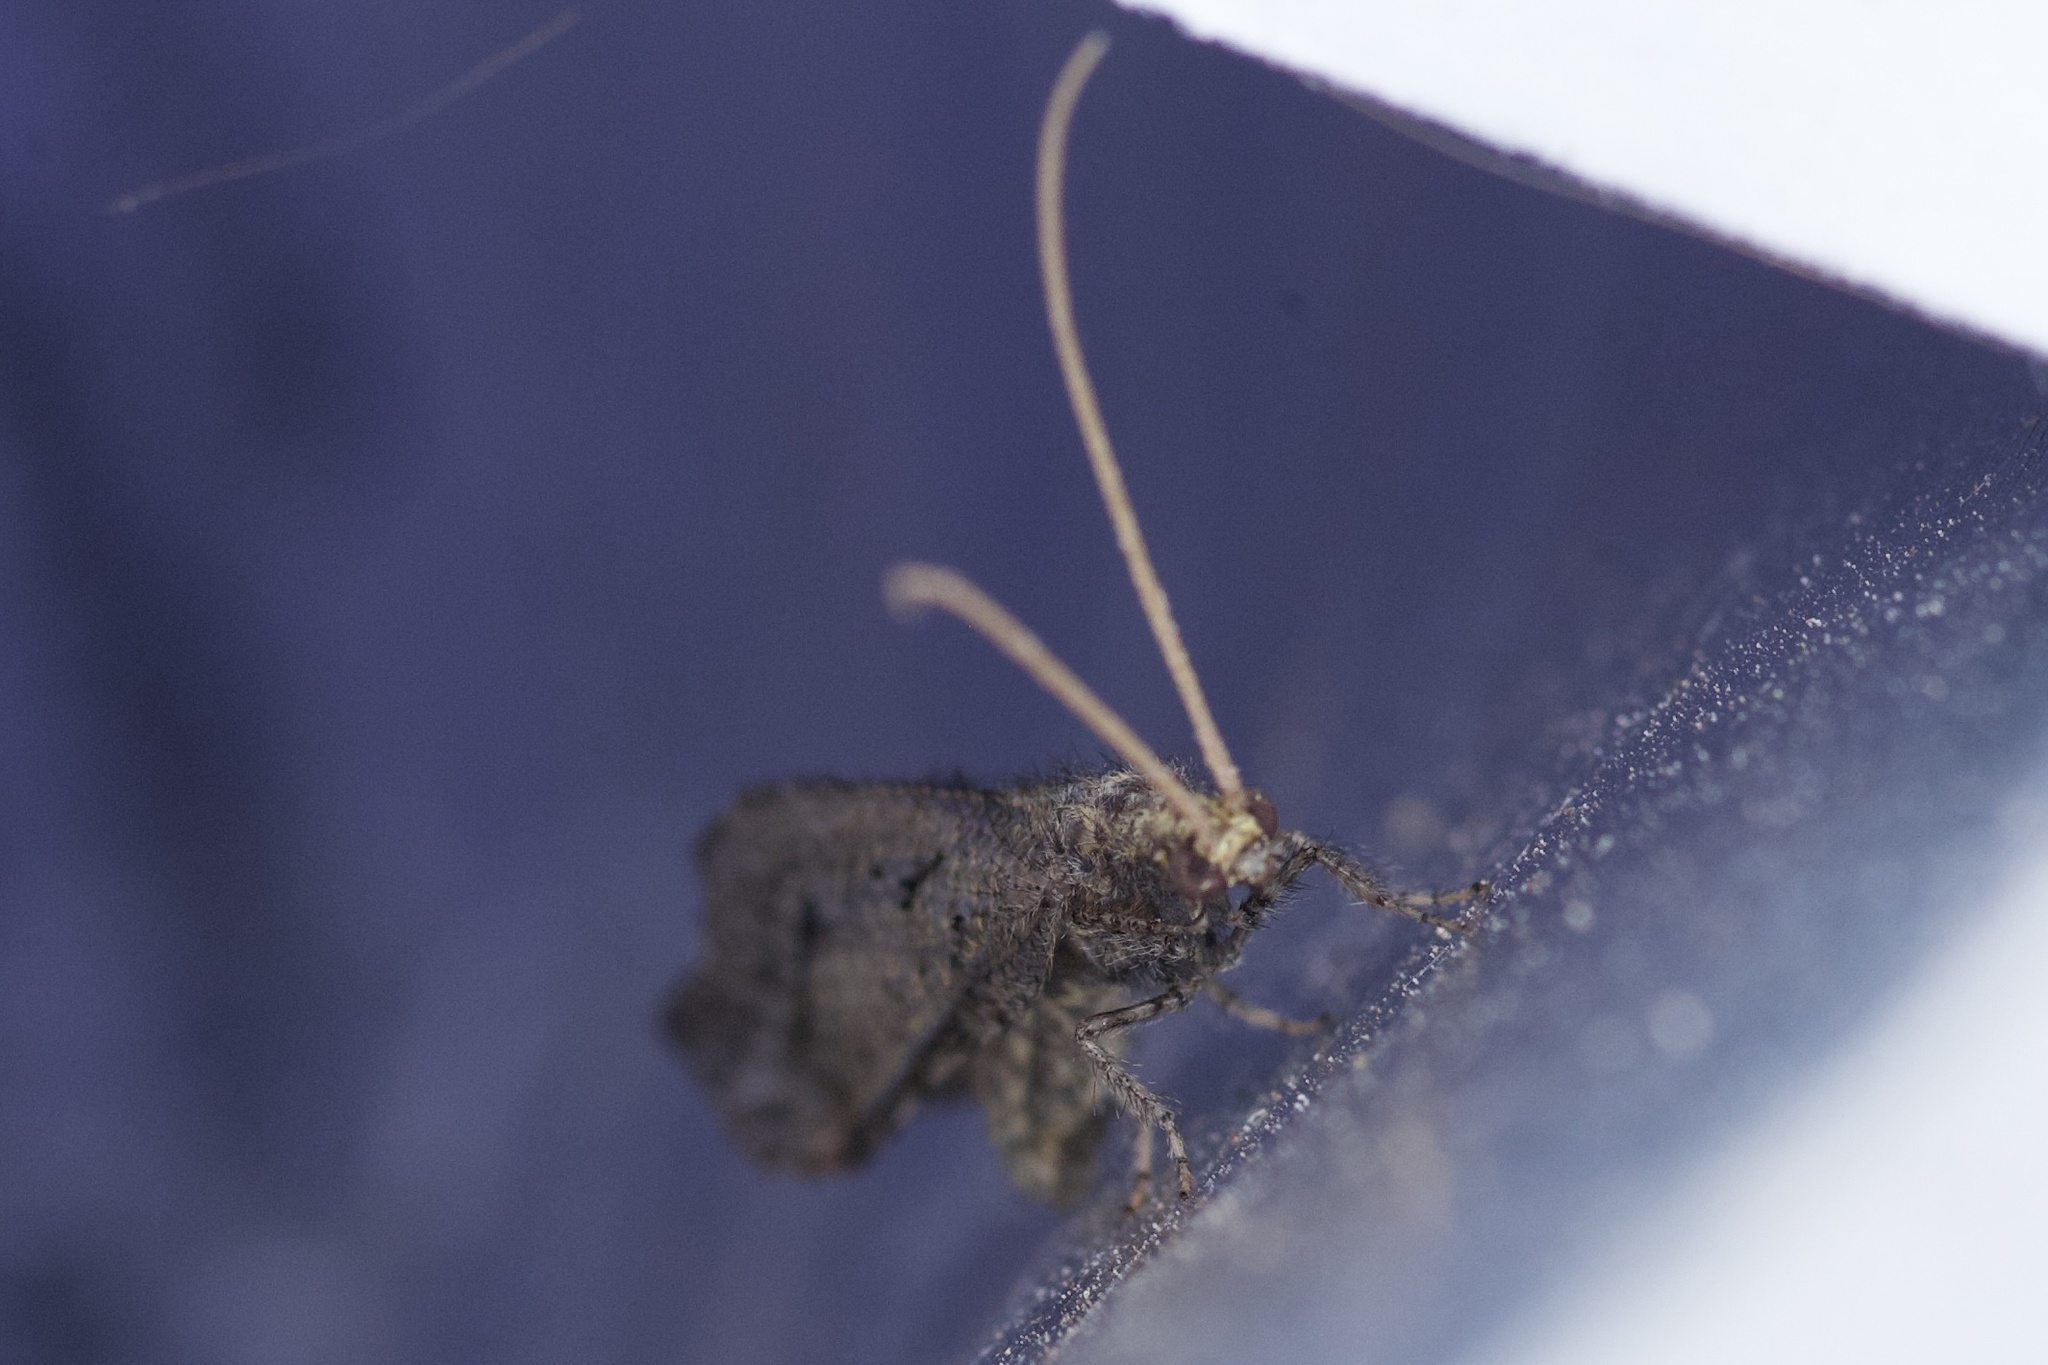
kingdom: Animalia
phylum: Arthropoda
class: Insecta
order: Neuroptera
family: Berothidae
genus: Lomamyia
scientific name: Lomamyia squamosa
